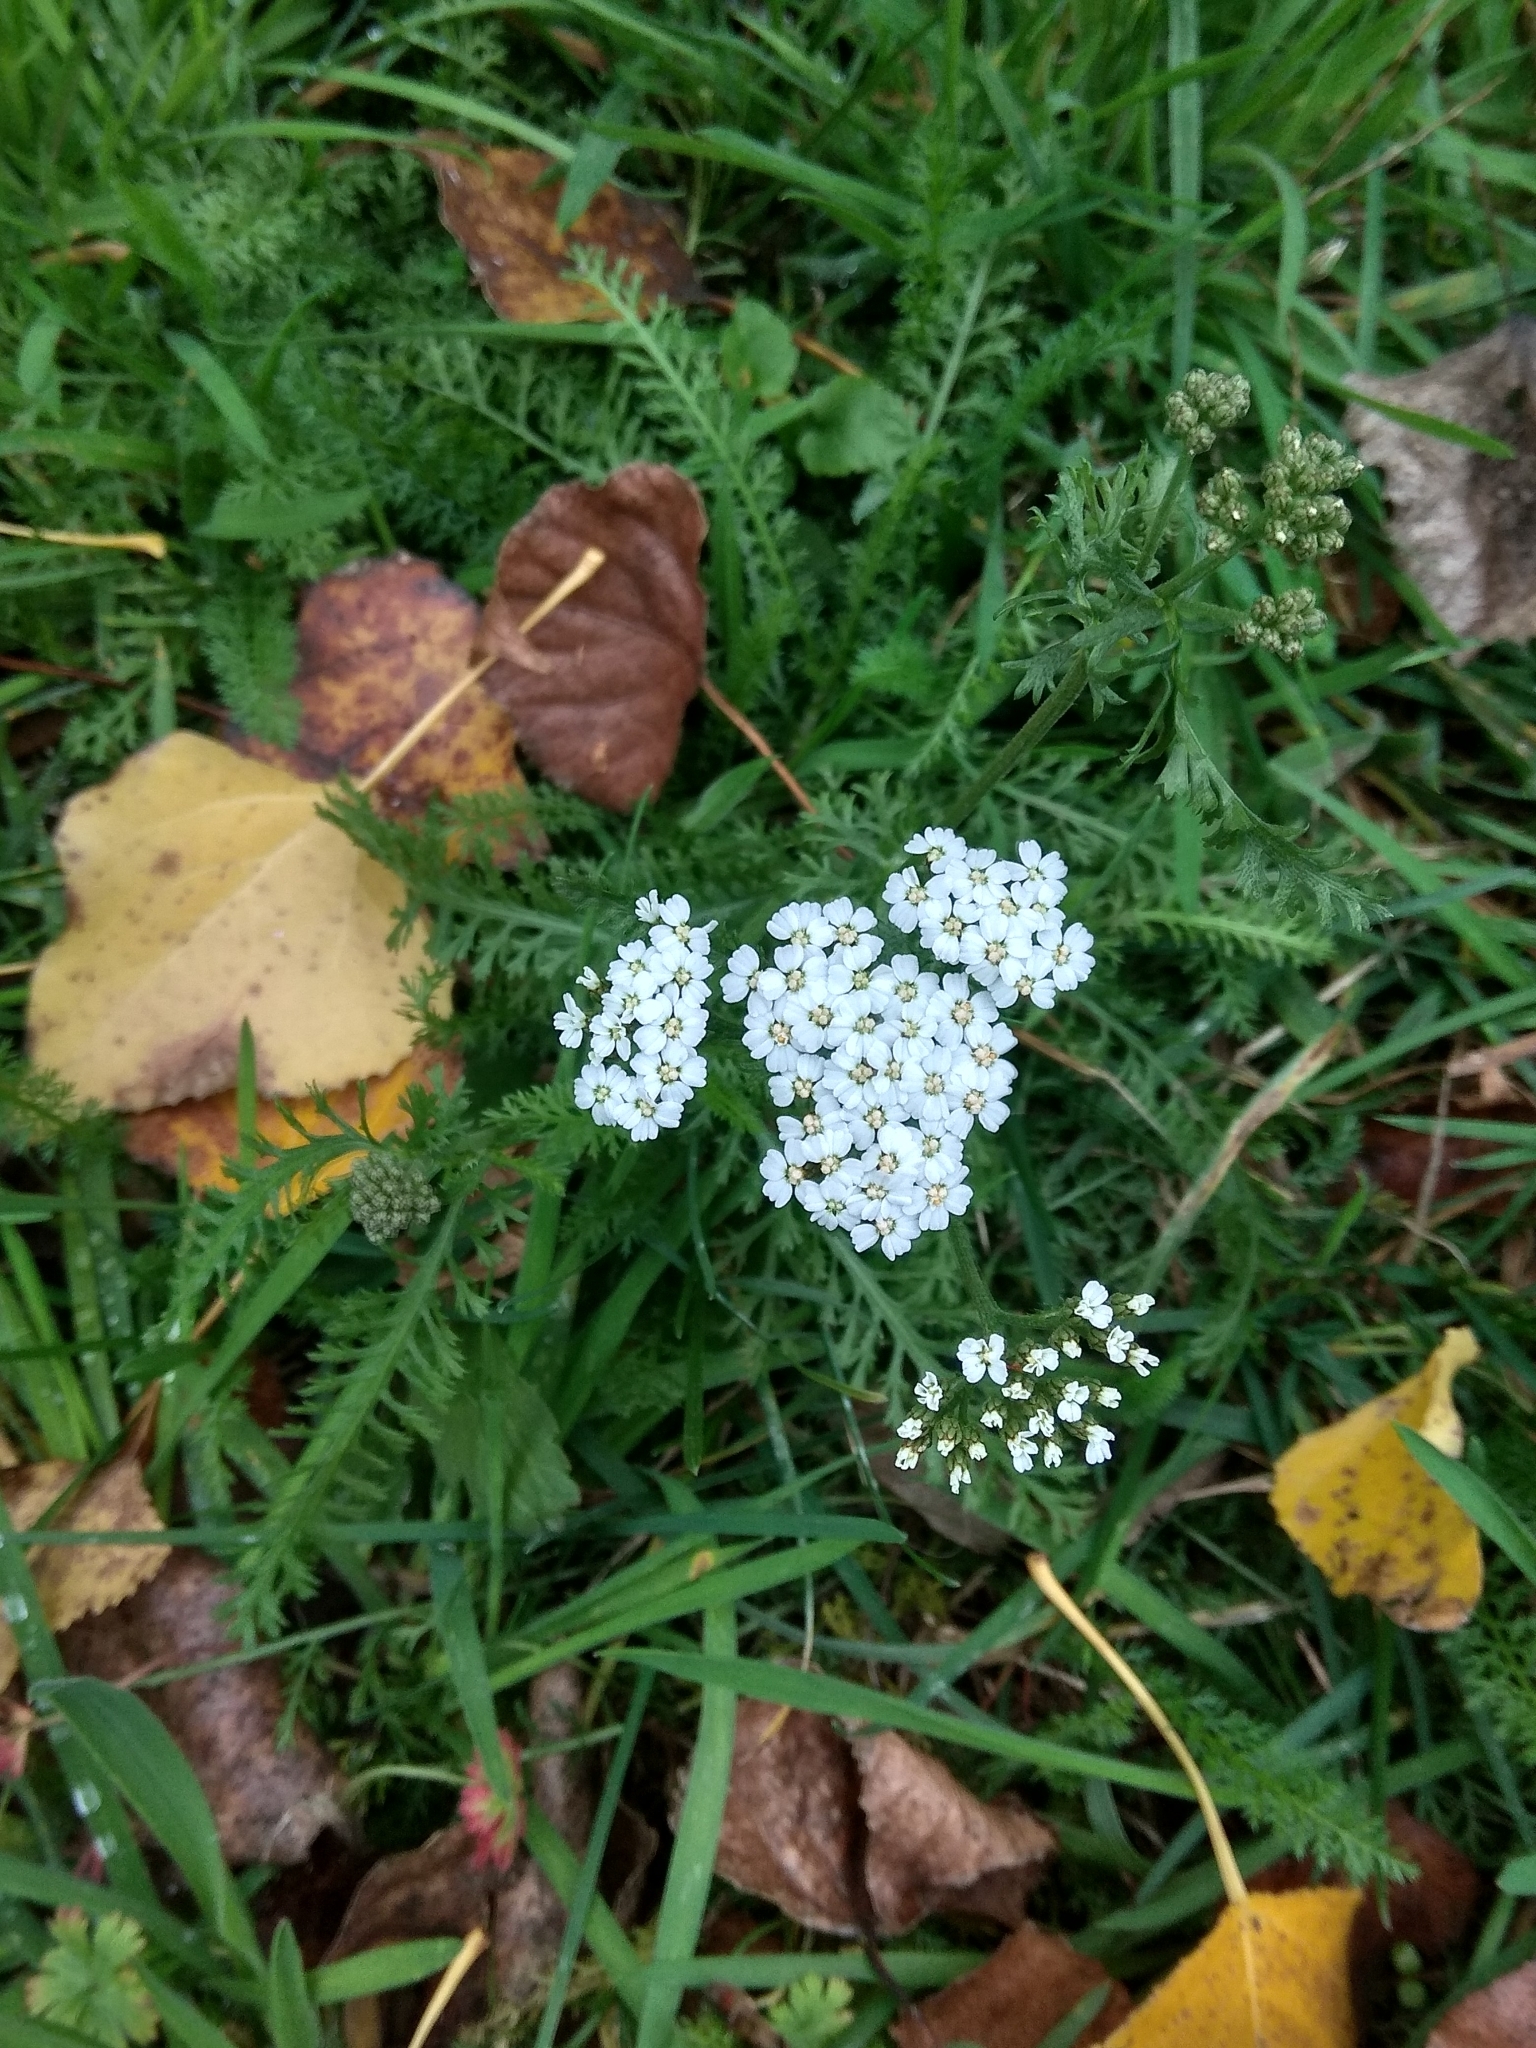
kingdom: Plantae
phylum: Tracheophyta
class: Magnoliopsida
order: Asterales
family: Asteraceae
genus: Achillea
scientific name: Achillea millefolium
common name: Yarrow
